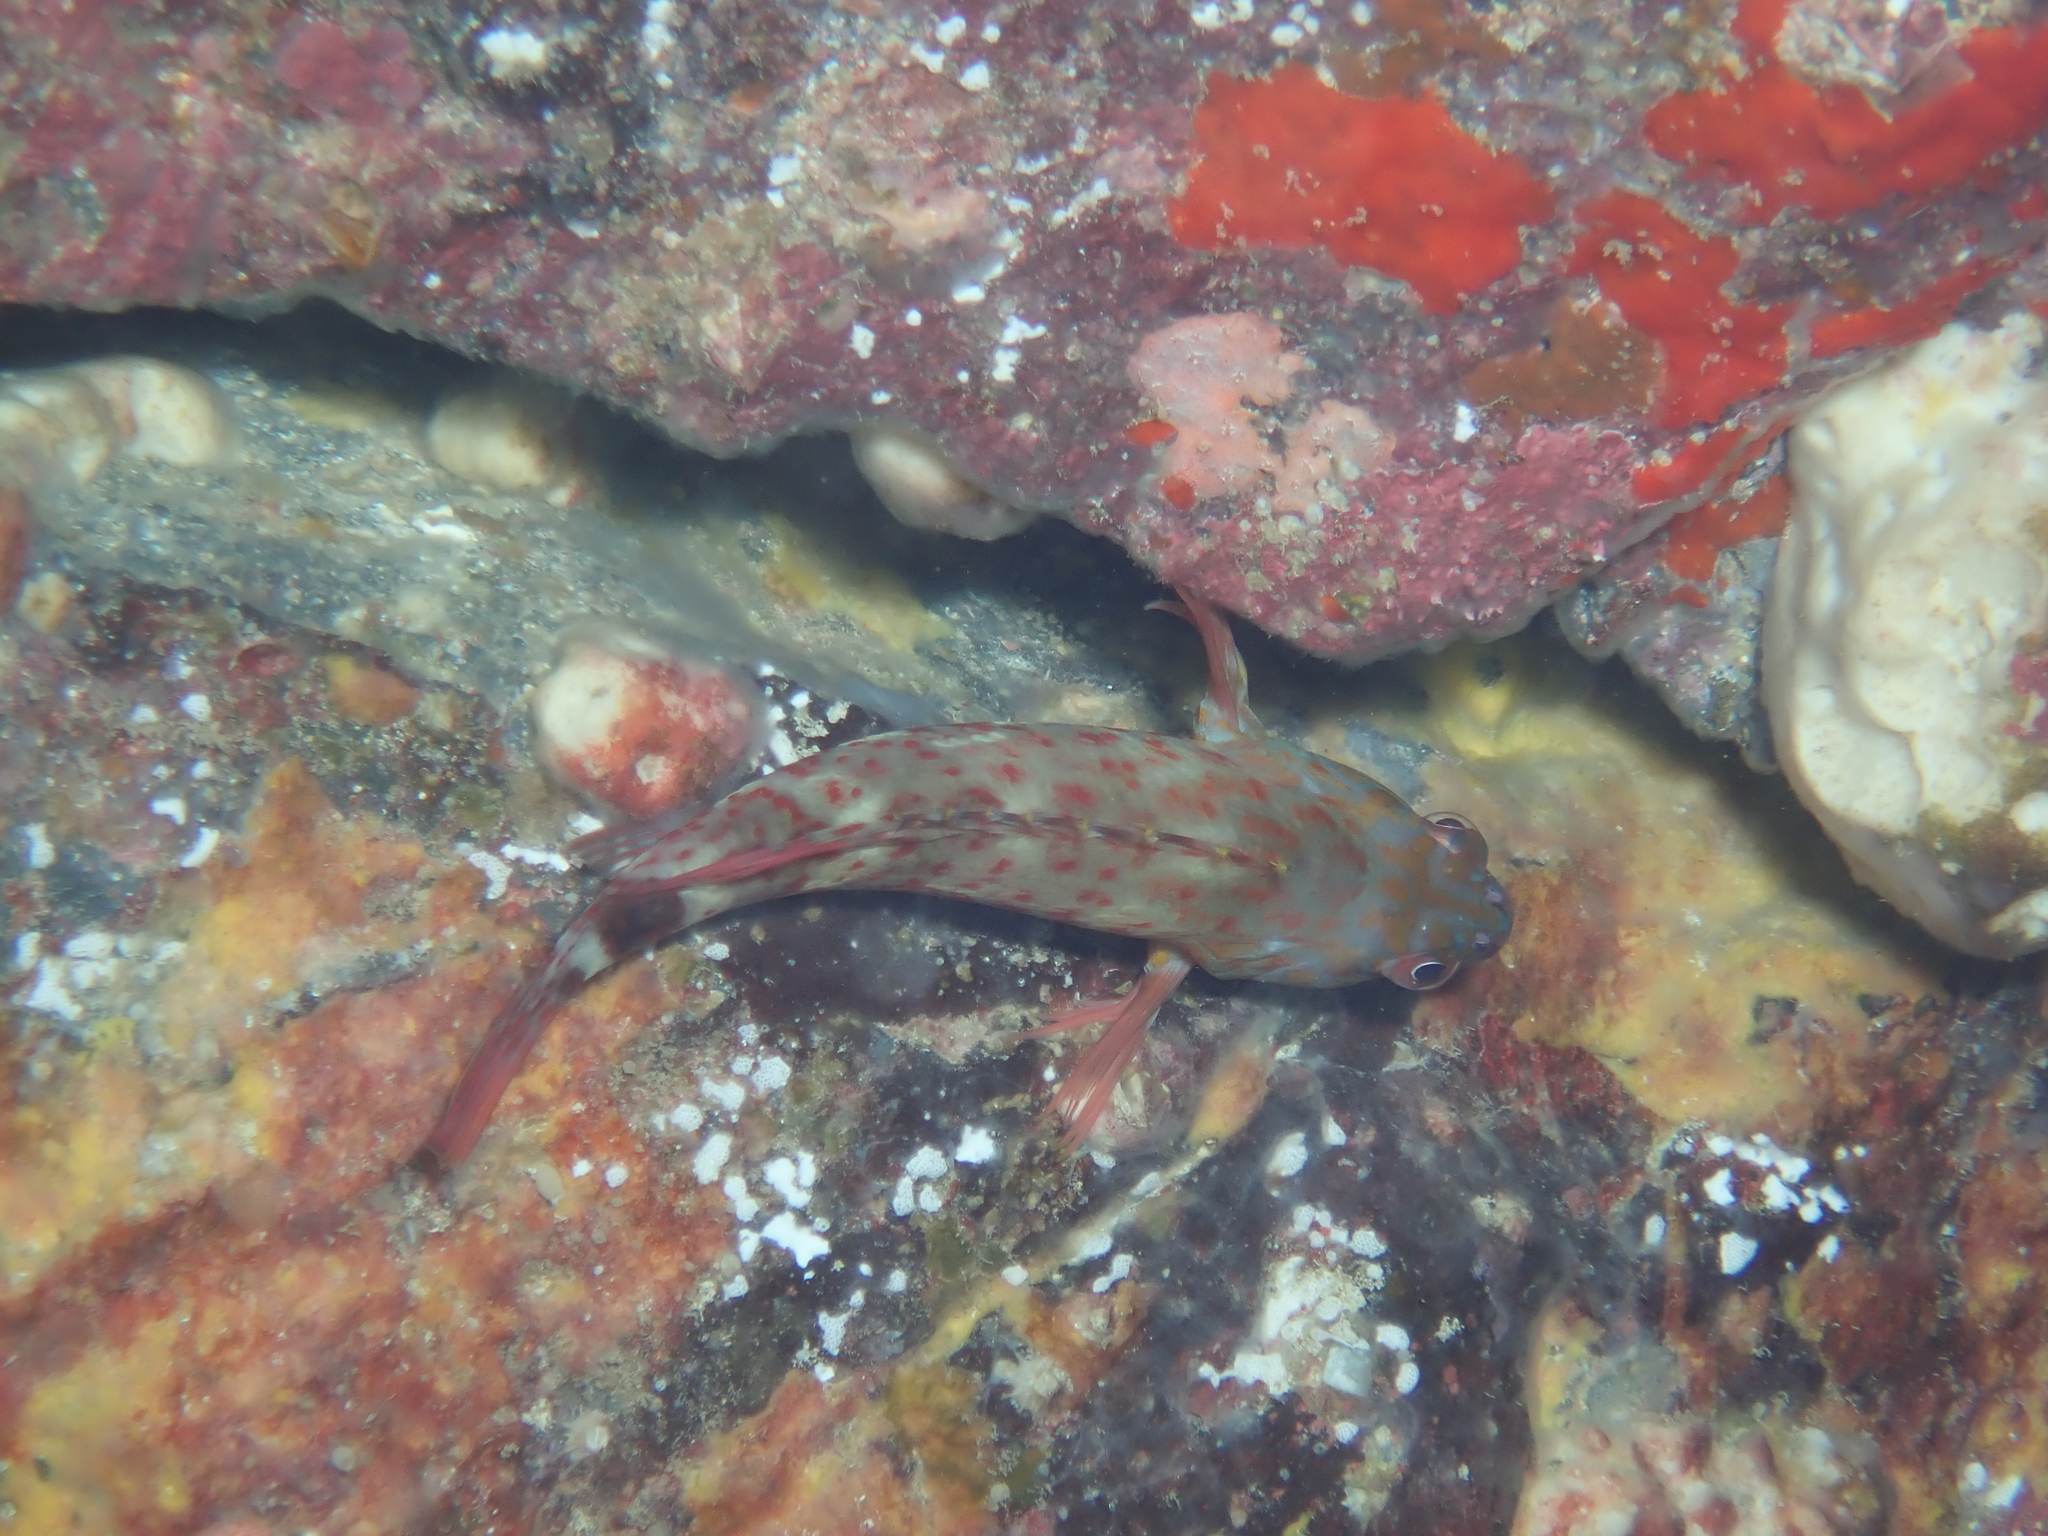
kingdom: Animalia
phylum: Chordata
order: Perciformes
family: Cirrhitidae
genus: Cirrhitus
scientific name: Cirrhitus pinnulatus
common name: Stocky hawkfish
